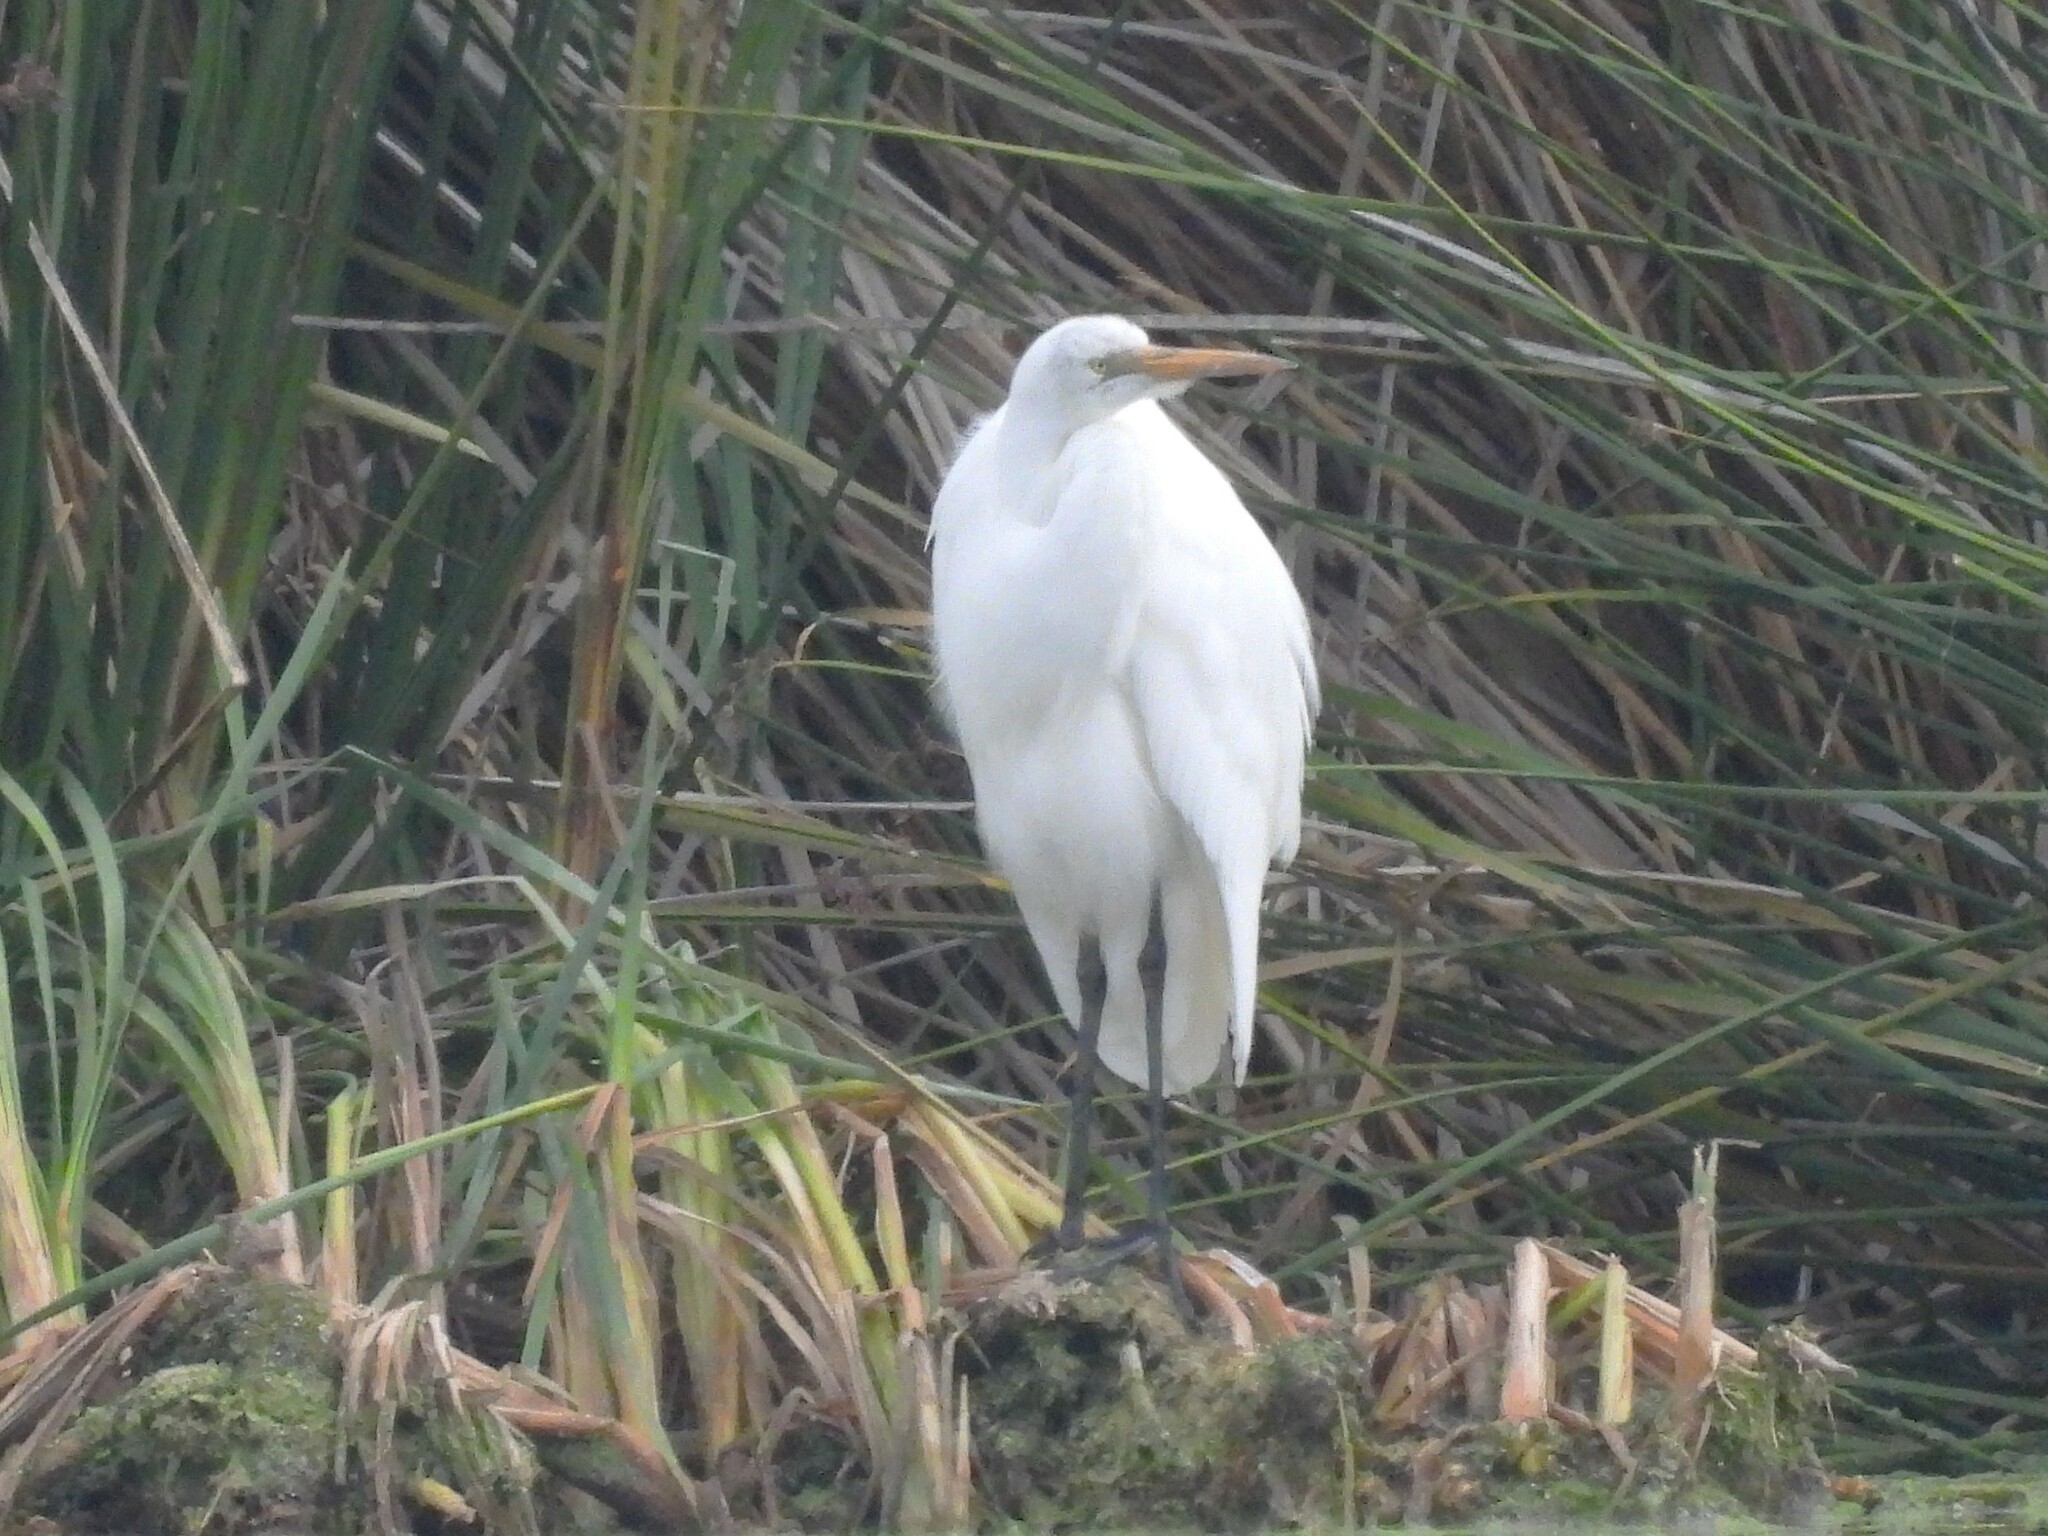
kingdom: Animalia
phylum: Chordata
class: Aves
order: Pelecaniformes
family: Ardeidae
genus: Ardea
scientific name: Ardea alba
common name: Great egret
